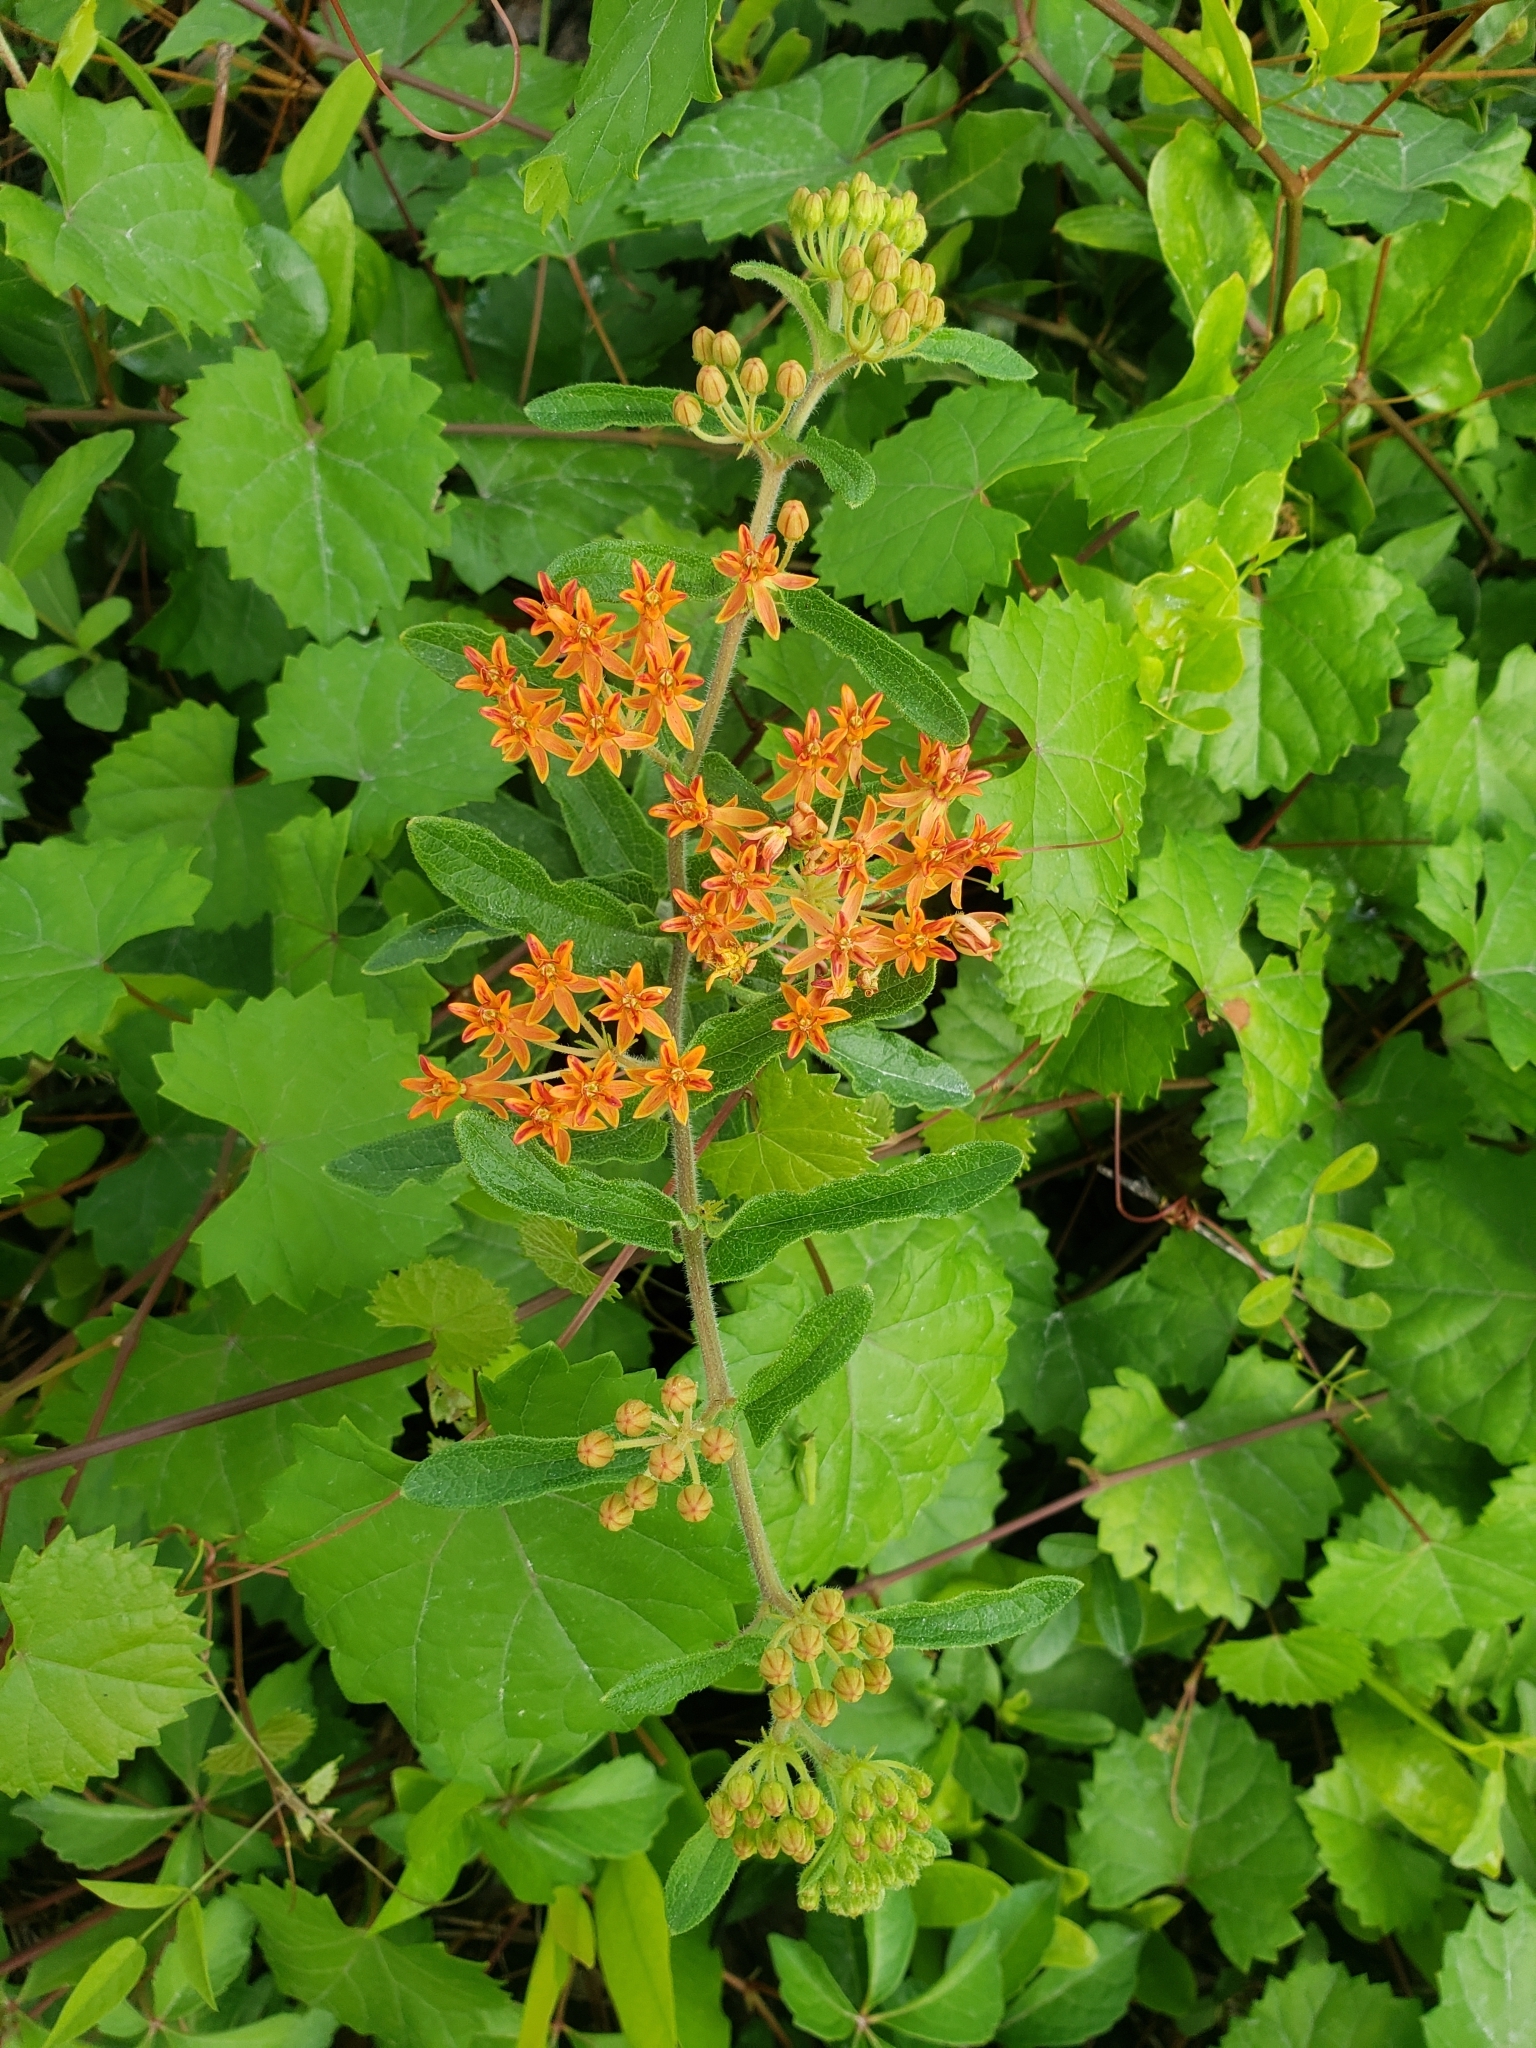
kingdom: Plantae
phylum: Tracheophyta
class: Magnoliopsida
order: Gentianales
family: Apocynaceae
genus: Asclepias
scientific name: Asclepias tuberosa
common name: Butterfly milkweed
